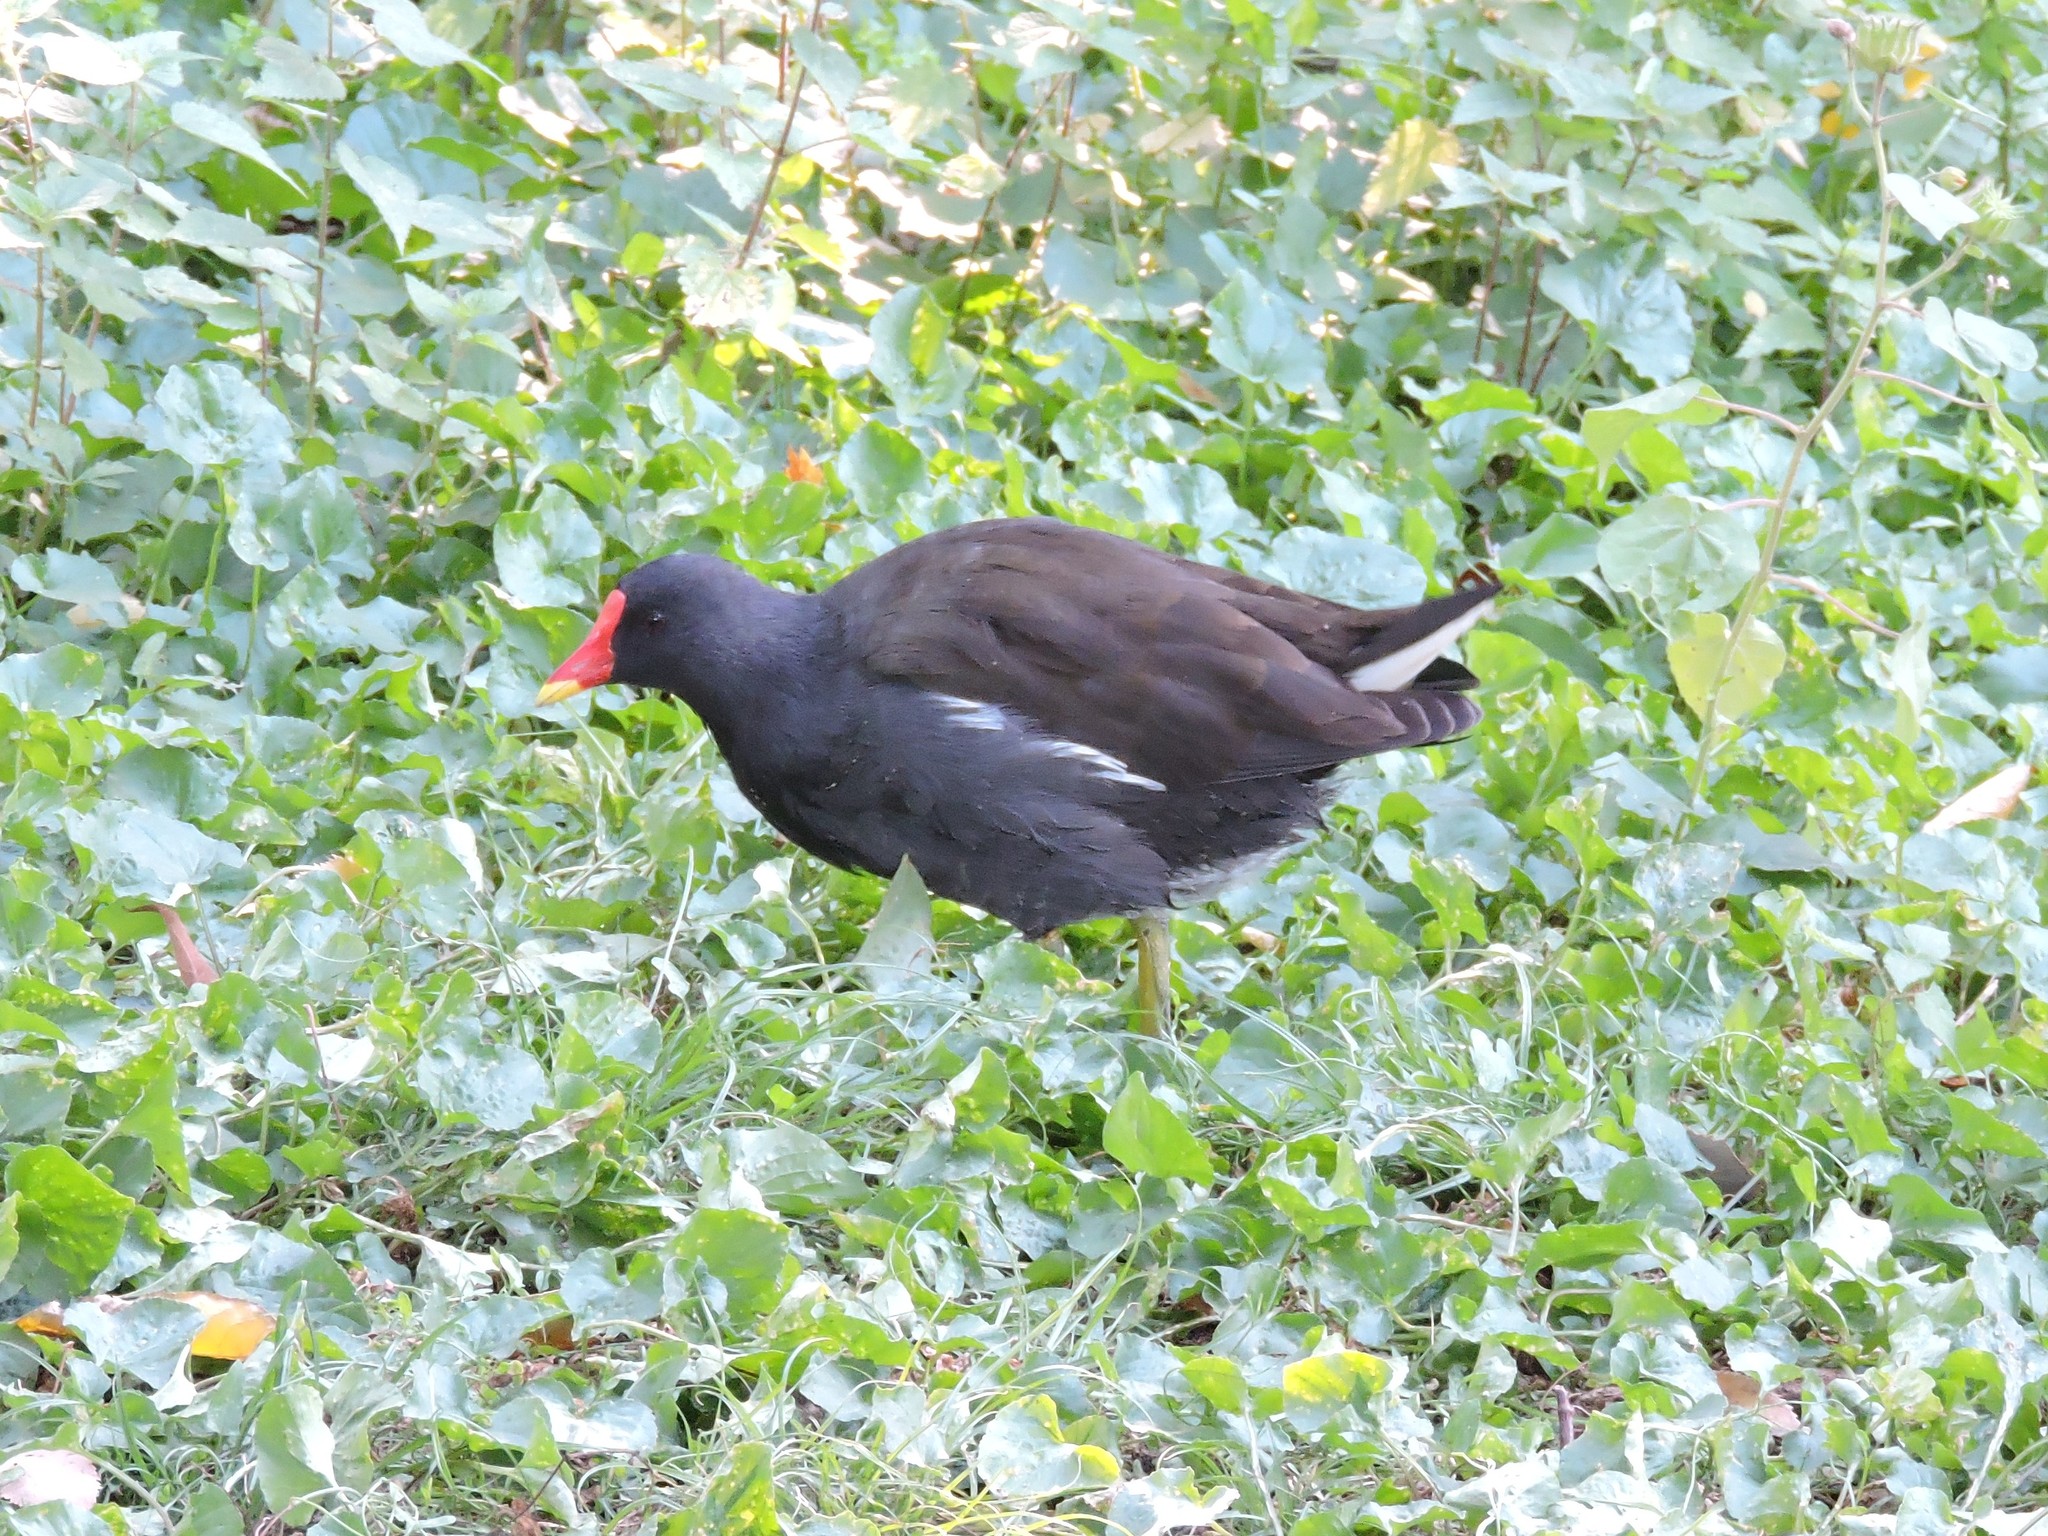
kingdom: Animalia
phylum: Chordata
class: Aves
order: Gruiformes
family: Rallidae
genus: Gallinula
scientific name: Gallinula chloropus
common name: Common moorhen
